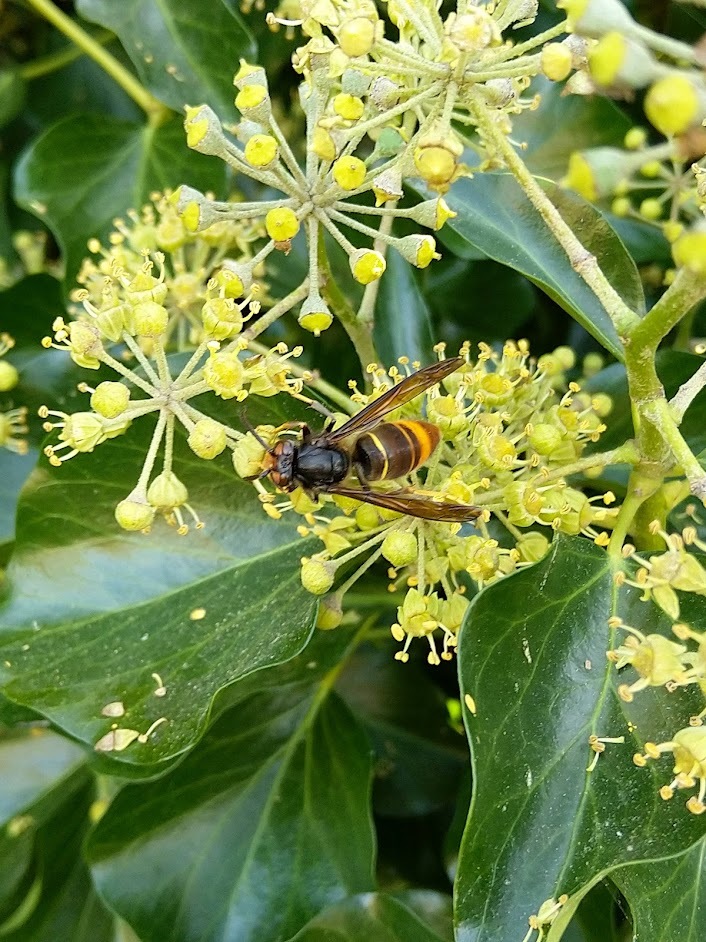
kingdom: Animalia
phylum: Arthropoda
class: Insecta
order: Hymenoptera
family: Vespidae
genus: Vespa
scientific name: Vespa velutina
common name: Asian hornet
